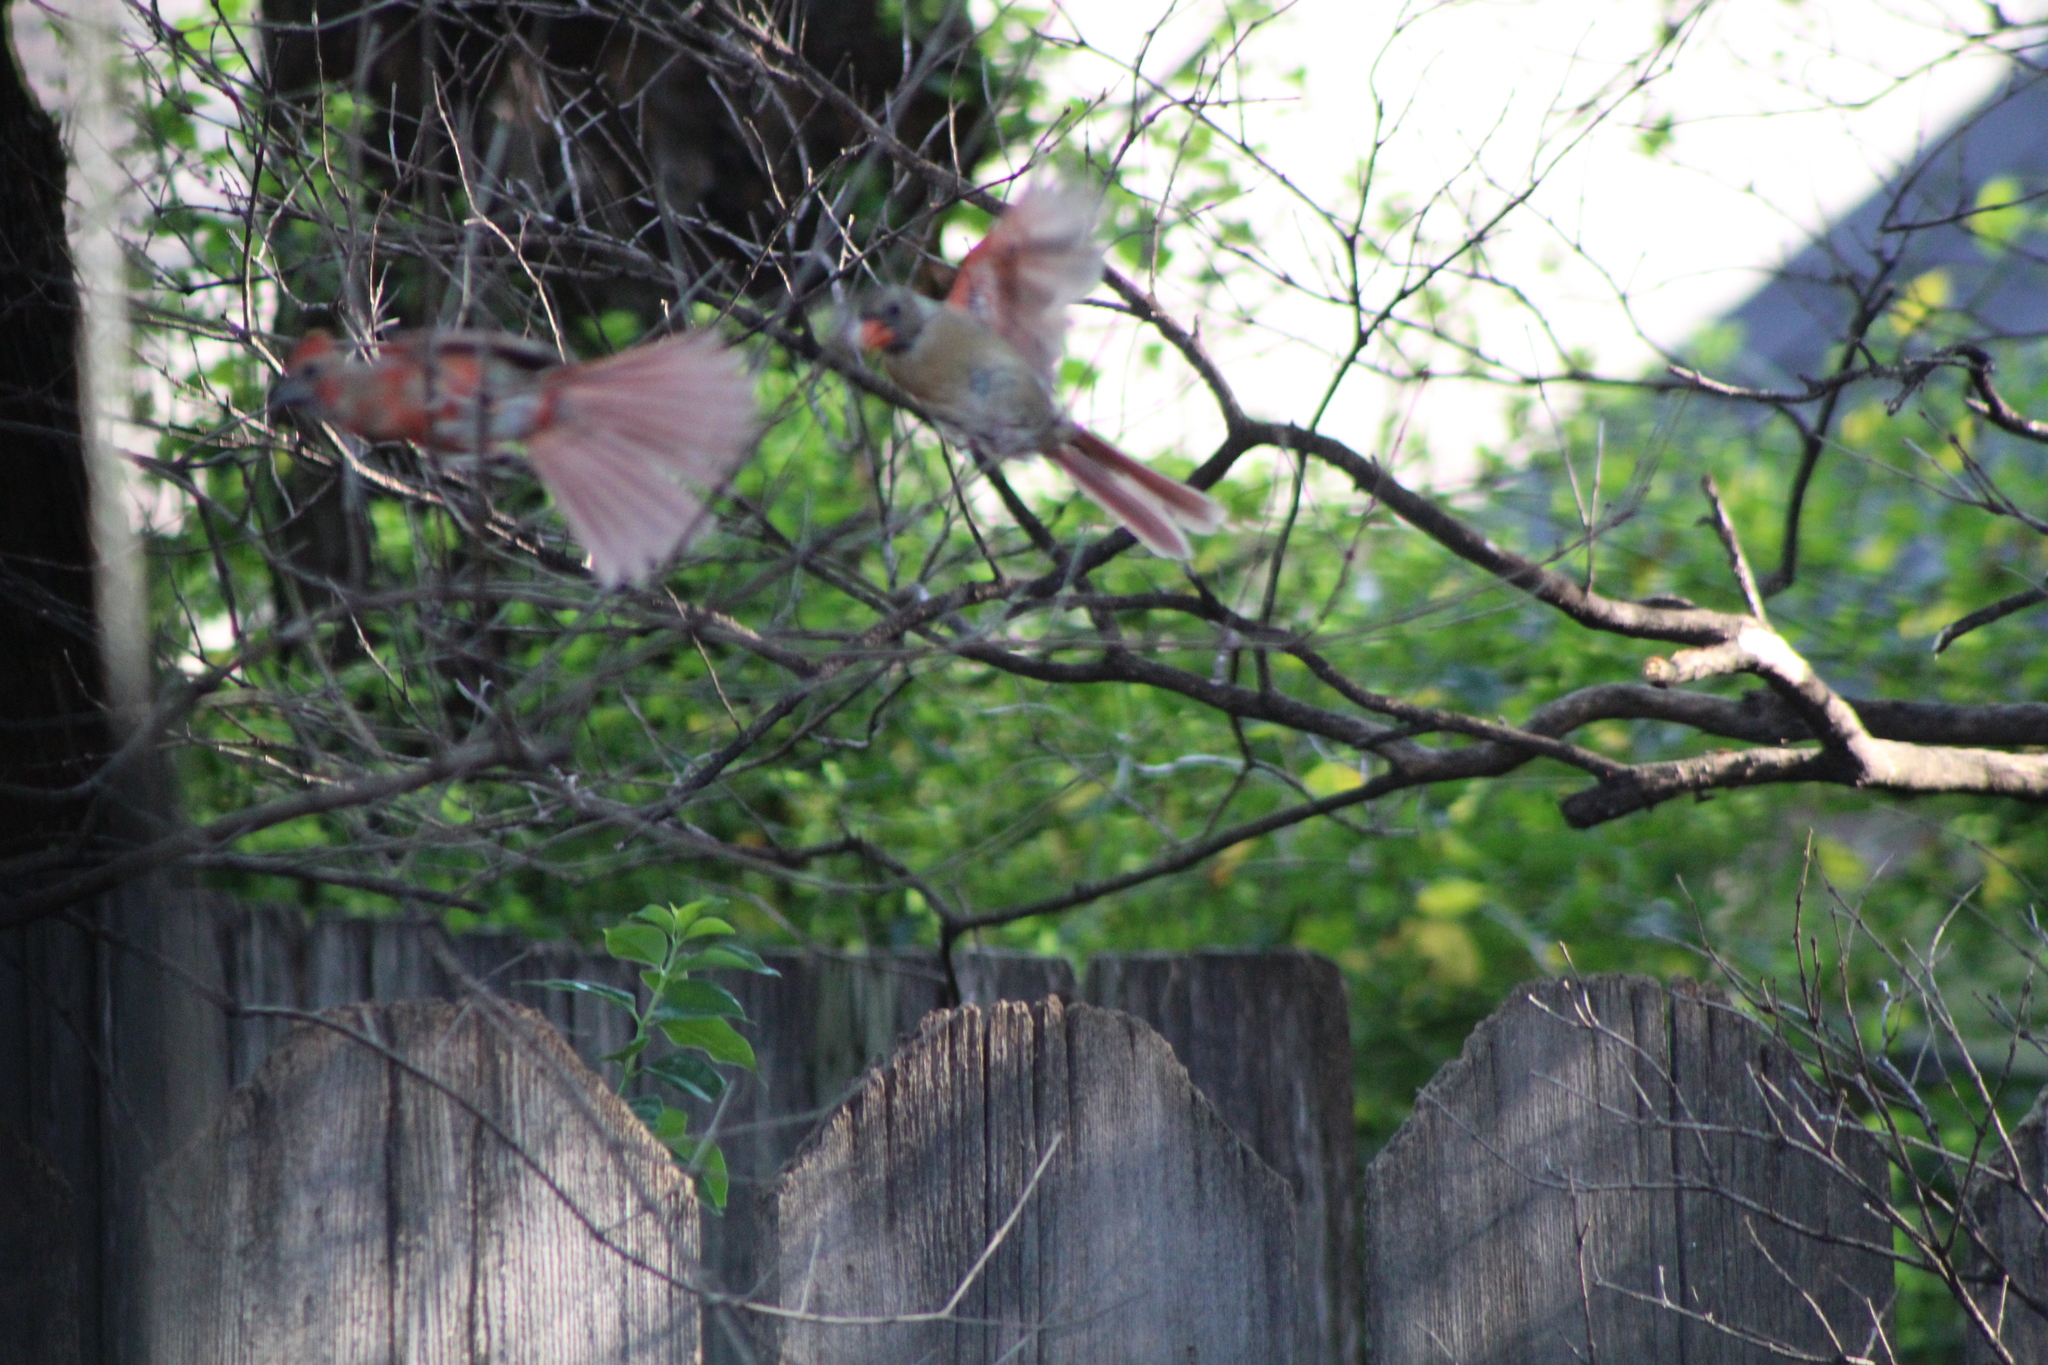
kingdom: Animalia
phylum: Chordata
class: Aves
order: Passeriformes
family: Cardinalidae
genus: Cardinalis
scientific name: Cardinalis cardinalis
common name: Northern cardinal
